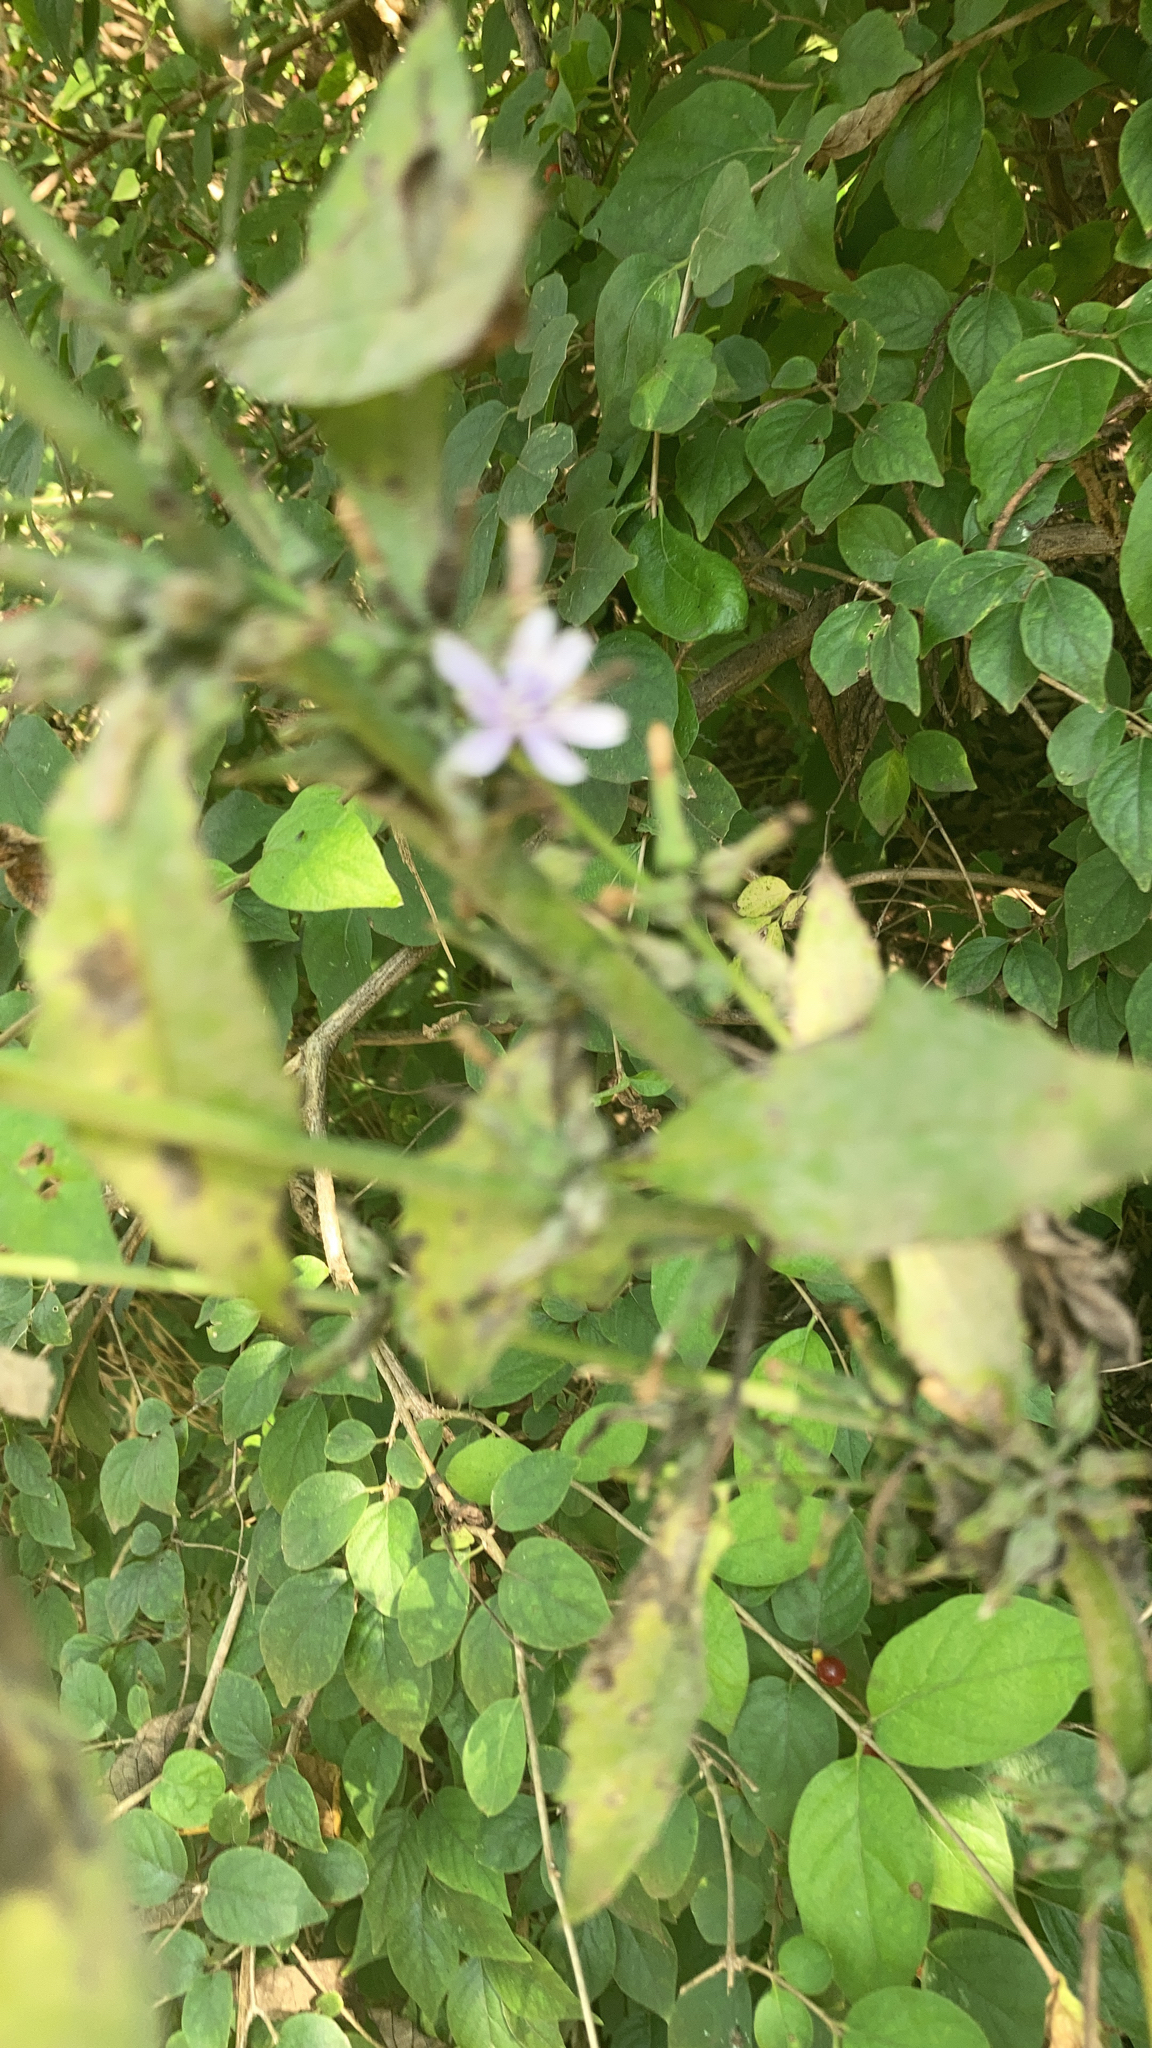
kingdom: Plantae
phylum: Tracheophyta
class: Magnoliopsida
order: Asterales
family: Asteraceae
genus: Lactuca
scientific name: Lactuca floridana
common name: Woodland lettuce
